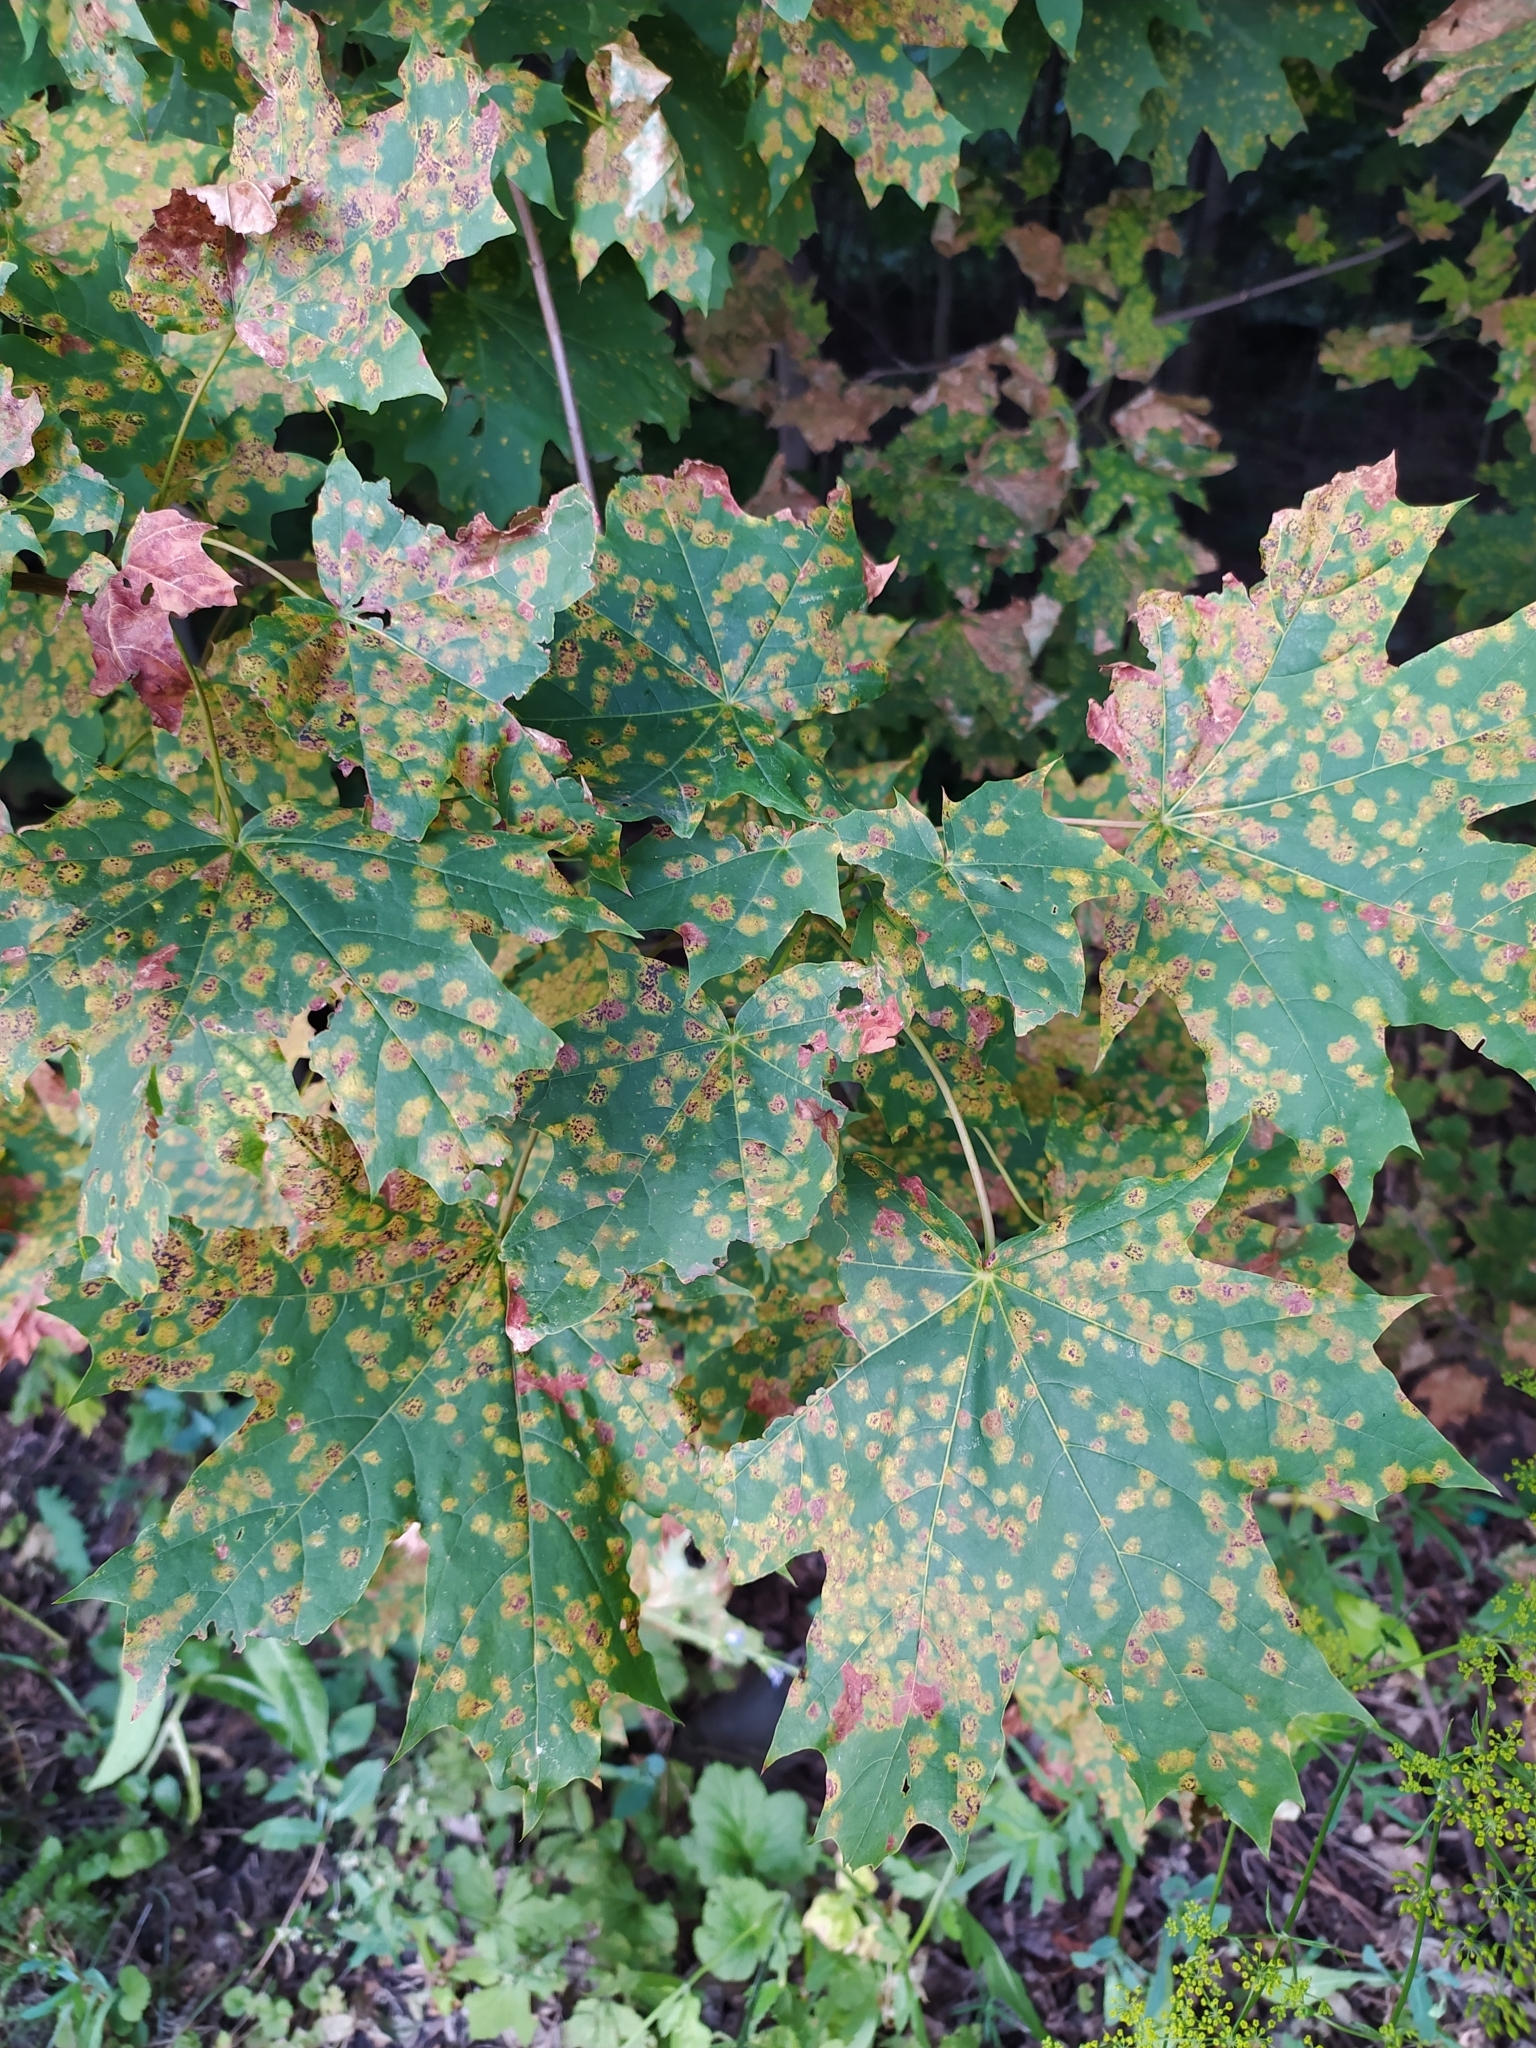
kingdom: Fungi
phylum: Ascomycota
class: Leotiomycetes
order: Rhytismatales
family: Rhytismataceae
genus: Rhytisma
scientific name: Rhytisma acerinum
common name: European tar spot
